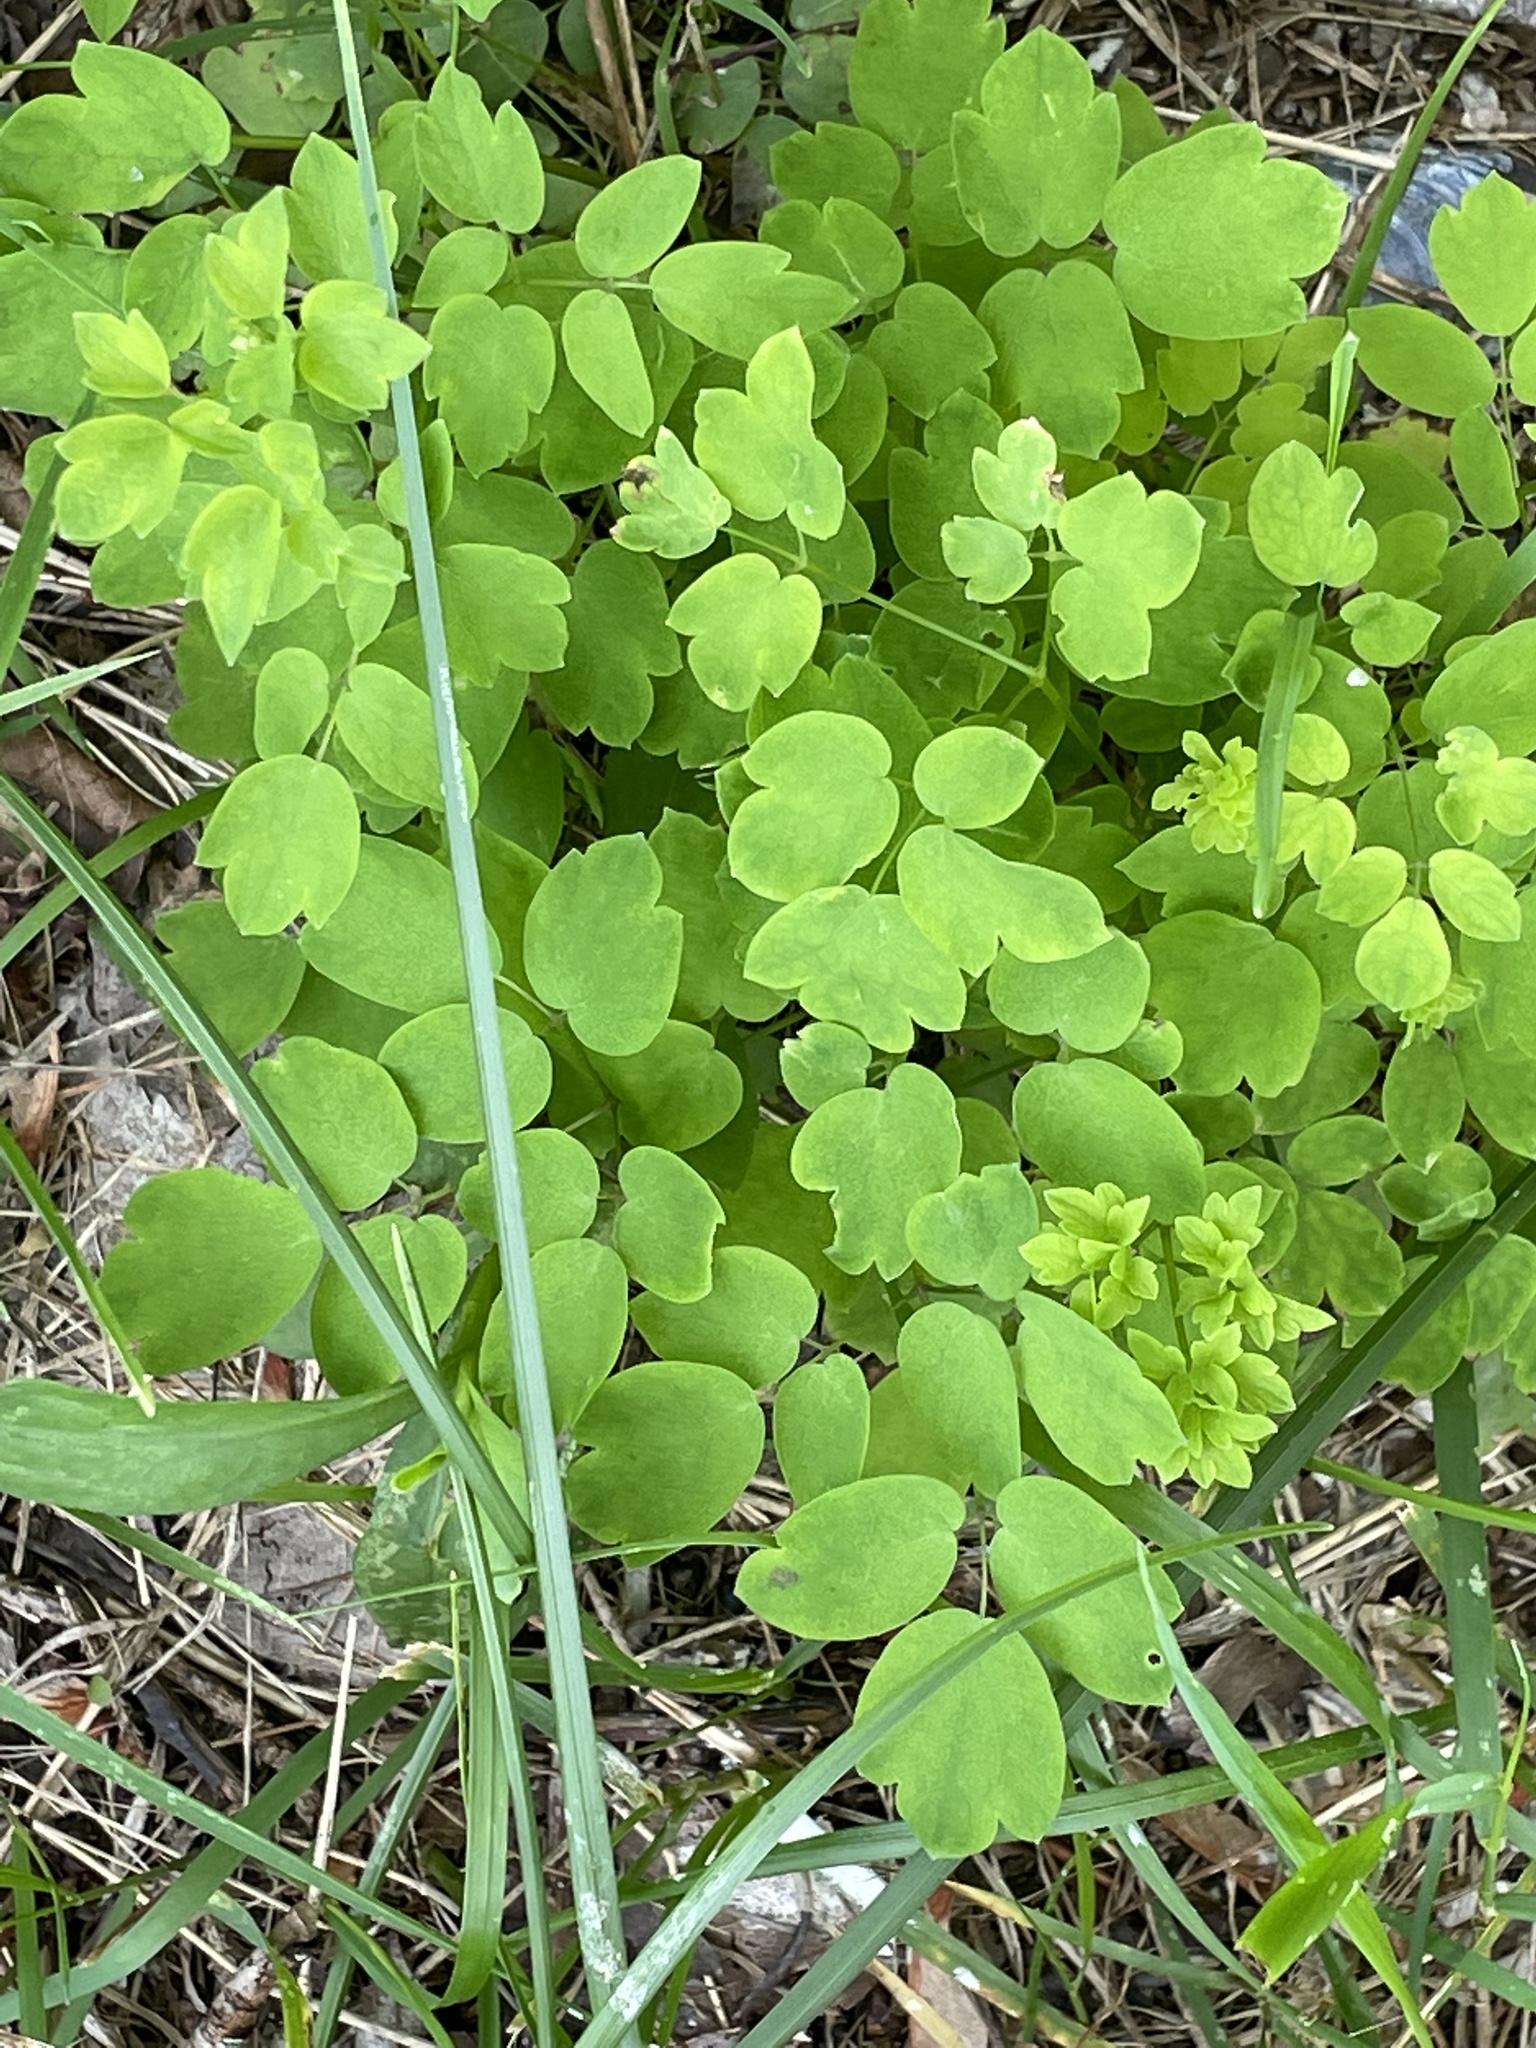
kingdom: Plantae
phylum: Tracheophyta
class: Magnoliopsida
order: Ranunculales
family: Ranunculaceae
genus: Thalictrum
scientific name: Thalictrum pubescens
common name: King-of-the-meadow
